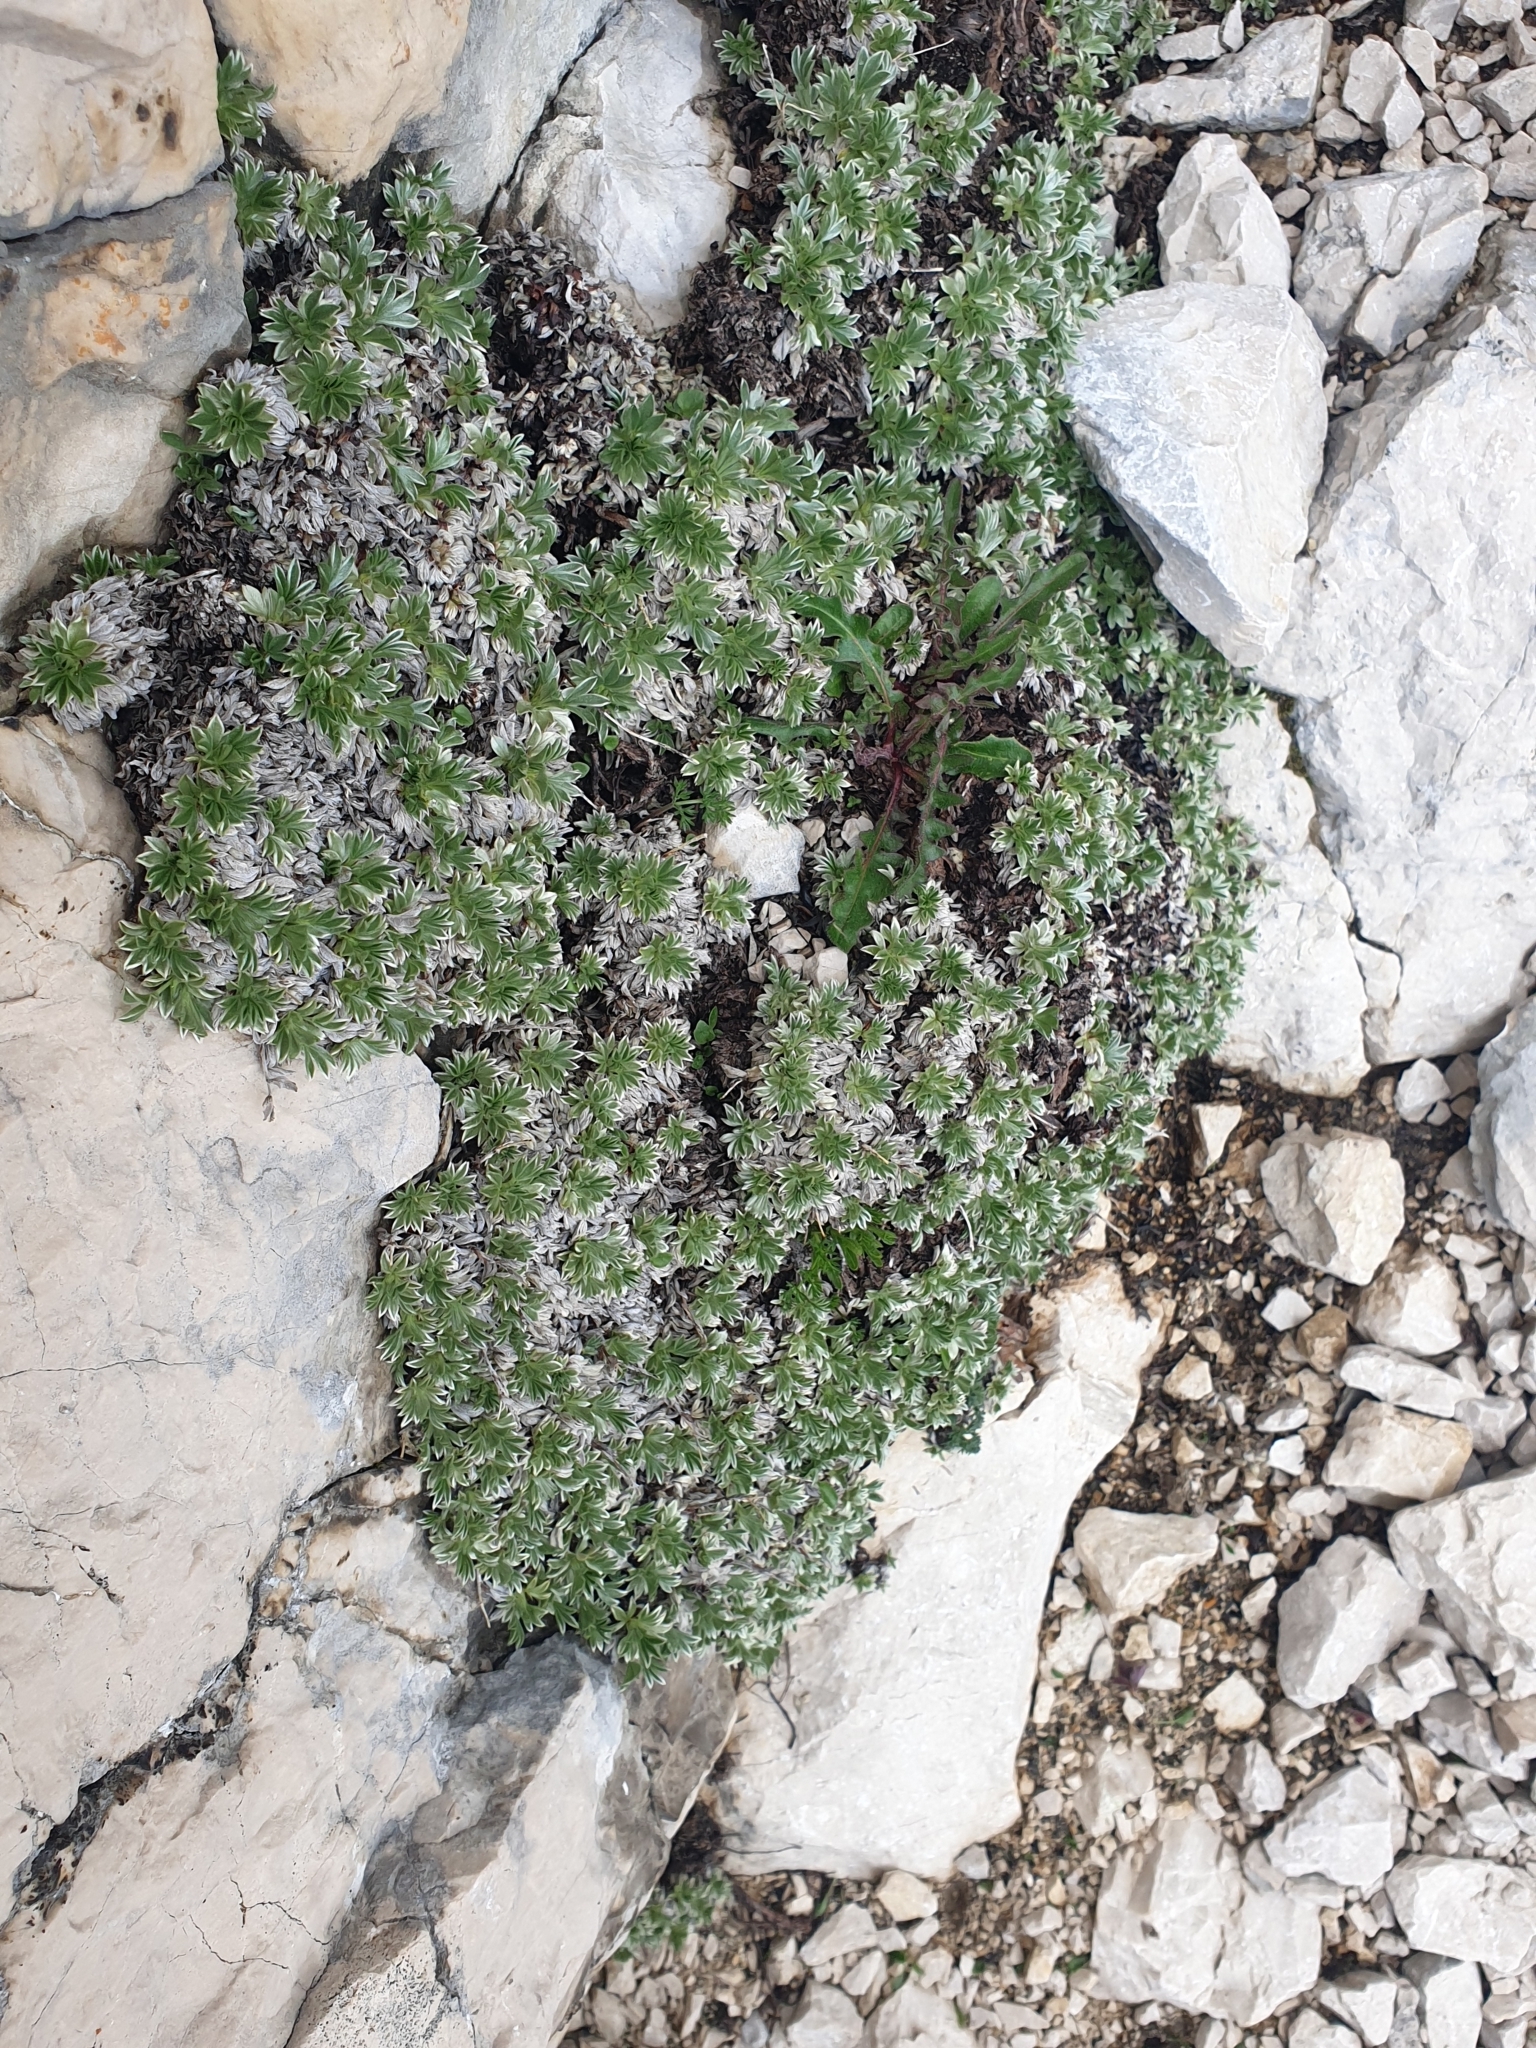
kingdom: Plantae
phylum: Tracheophyta
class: Magnoliopsida
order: Rosales
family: Rosaceae
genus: Potentilla
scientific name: Potentilla nitida
